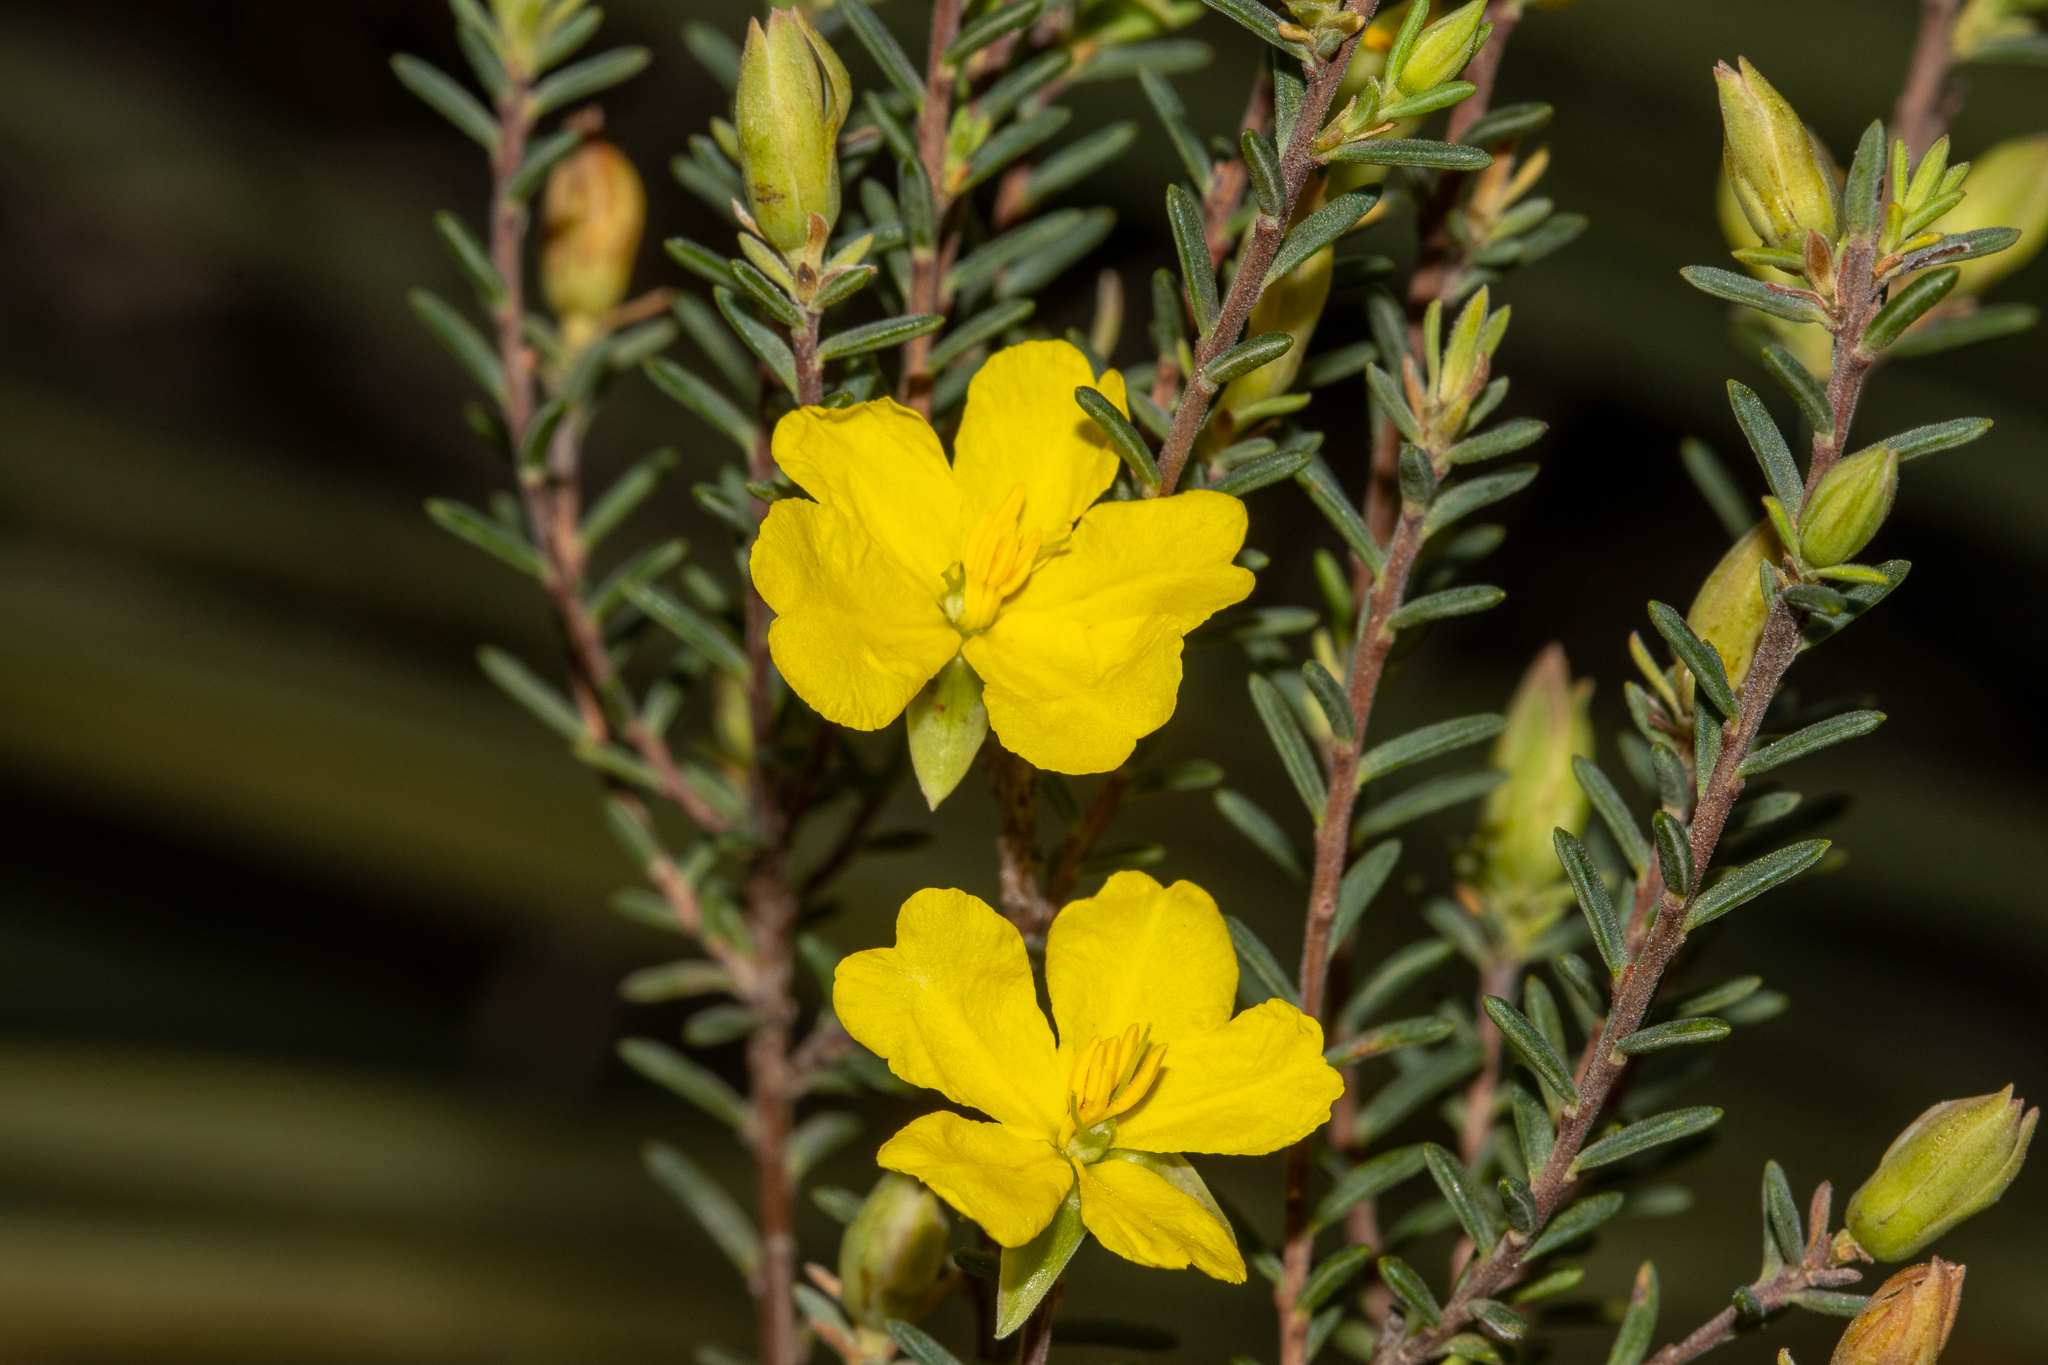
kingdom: Plantae
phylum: Tracheophyta
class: Magnoliopsida
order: Dilleniales
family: Dilleniaceae
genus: Hibbertia
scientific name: Hibbertia devitata
